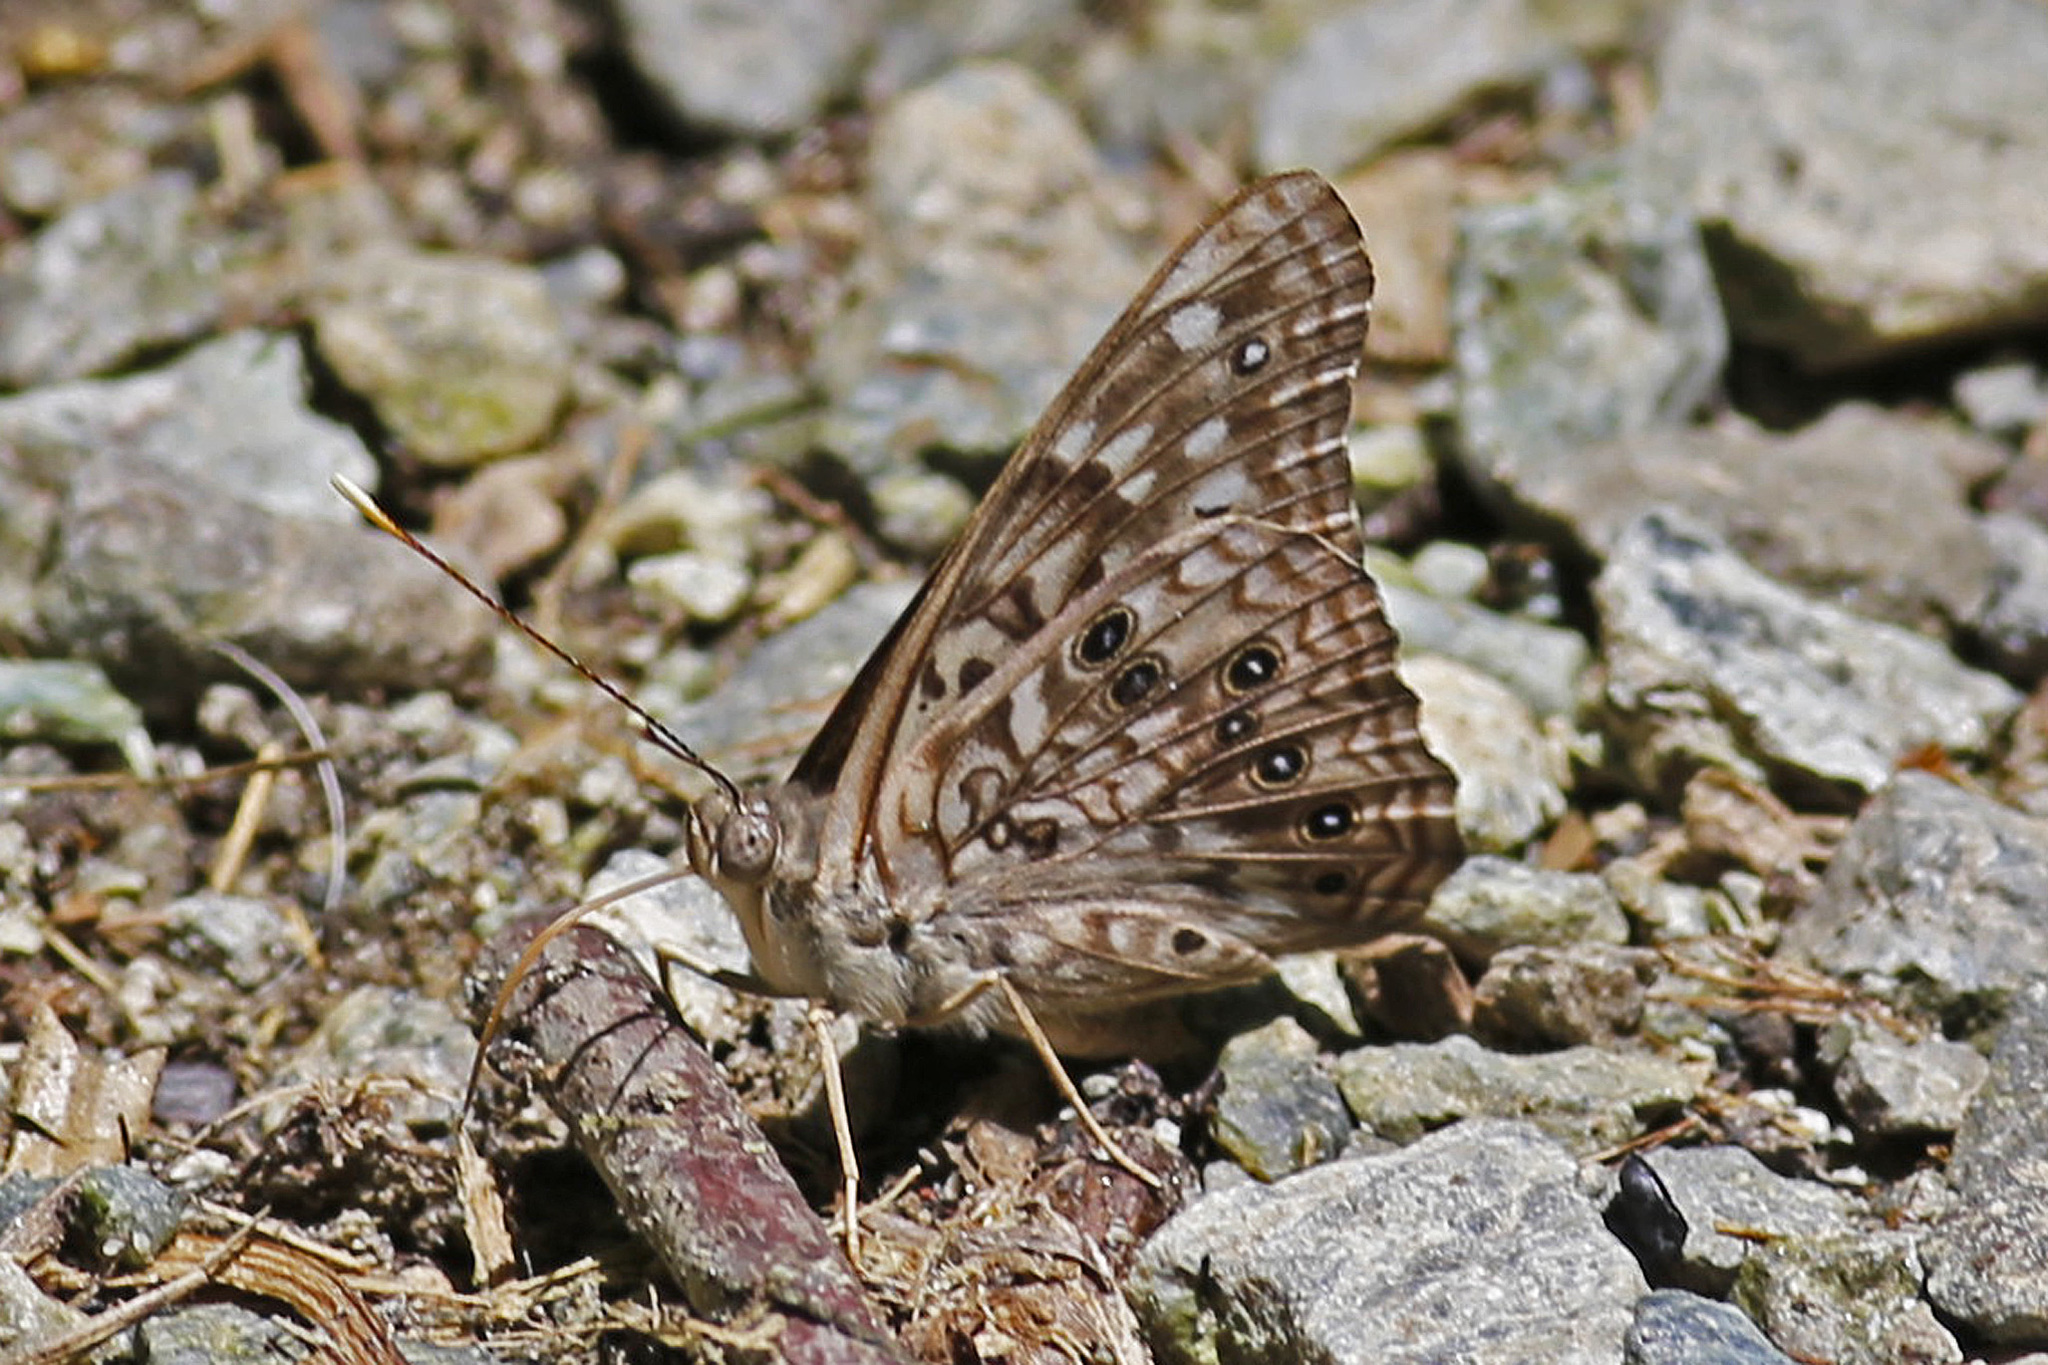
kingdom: Animalia
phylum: Arthropoda
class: Insecta
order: Lepidoptera
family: Nymphalidae
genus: Asterocampa
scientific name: Asterocampa celtis
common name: Hackberry emperor
